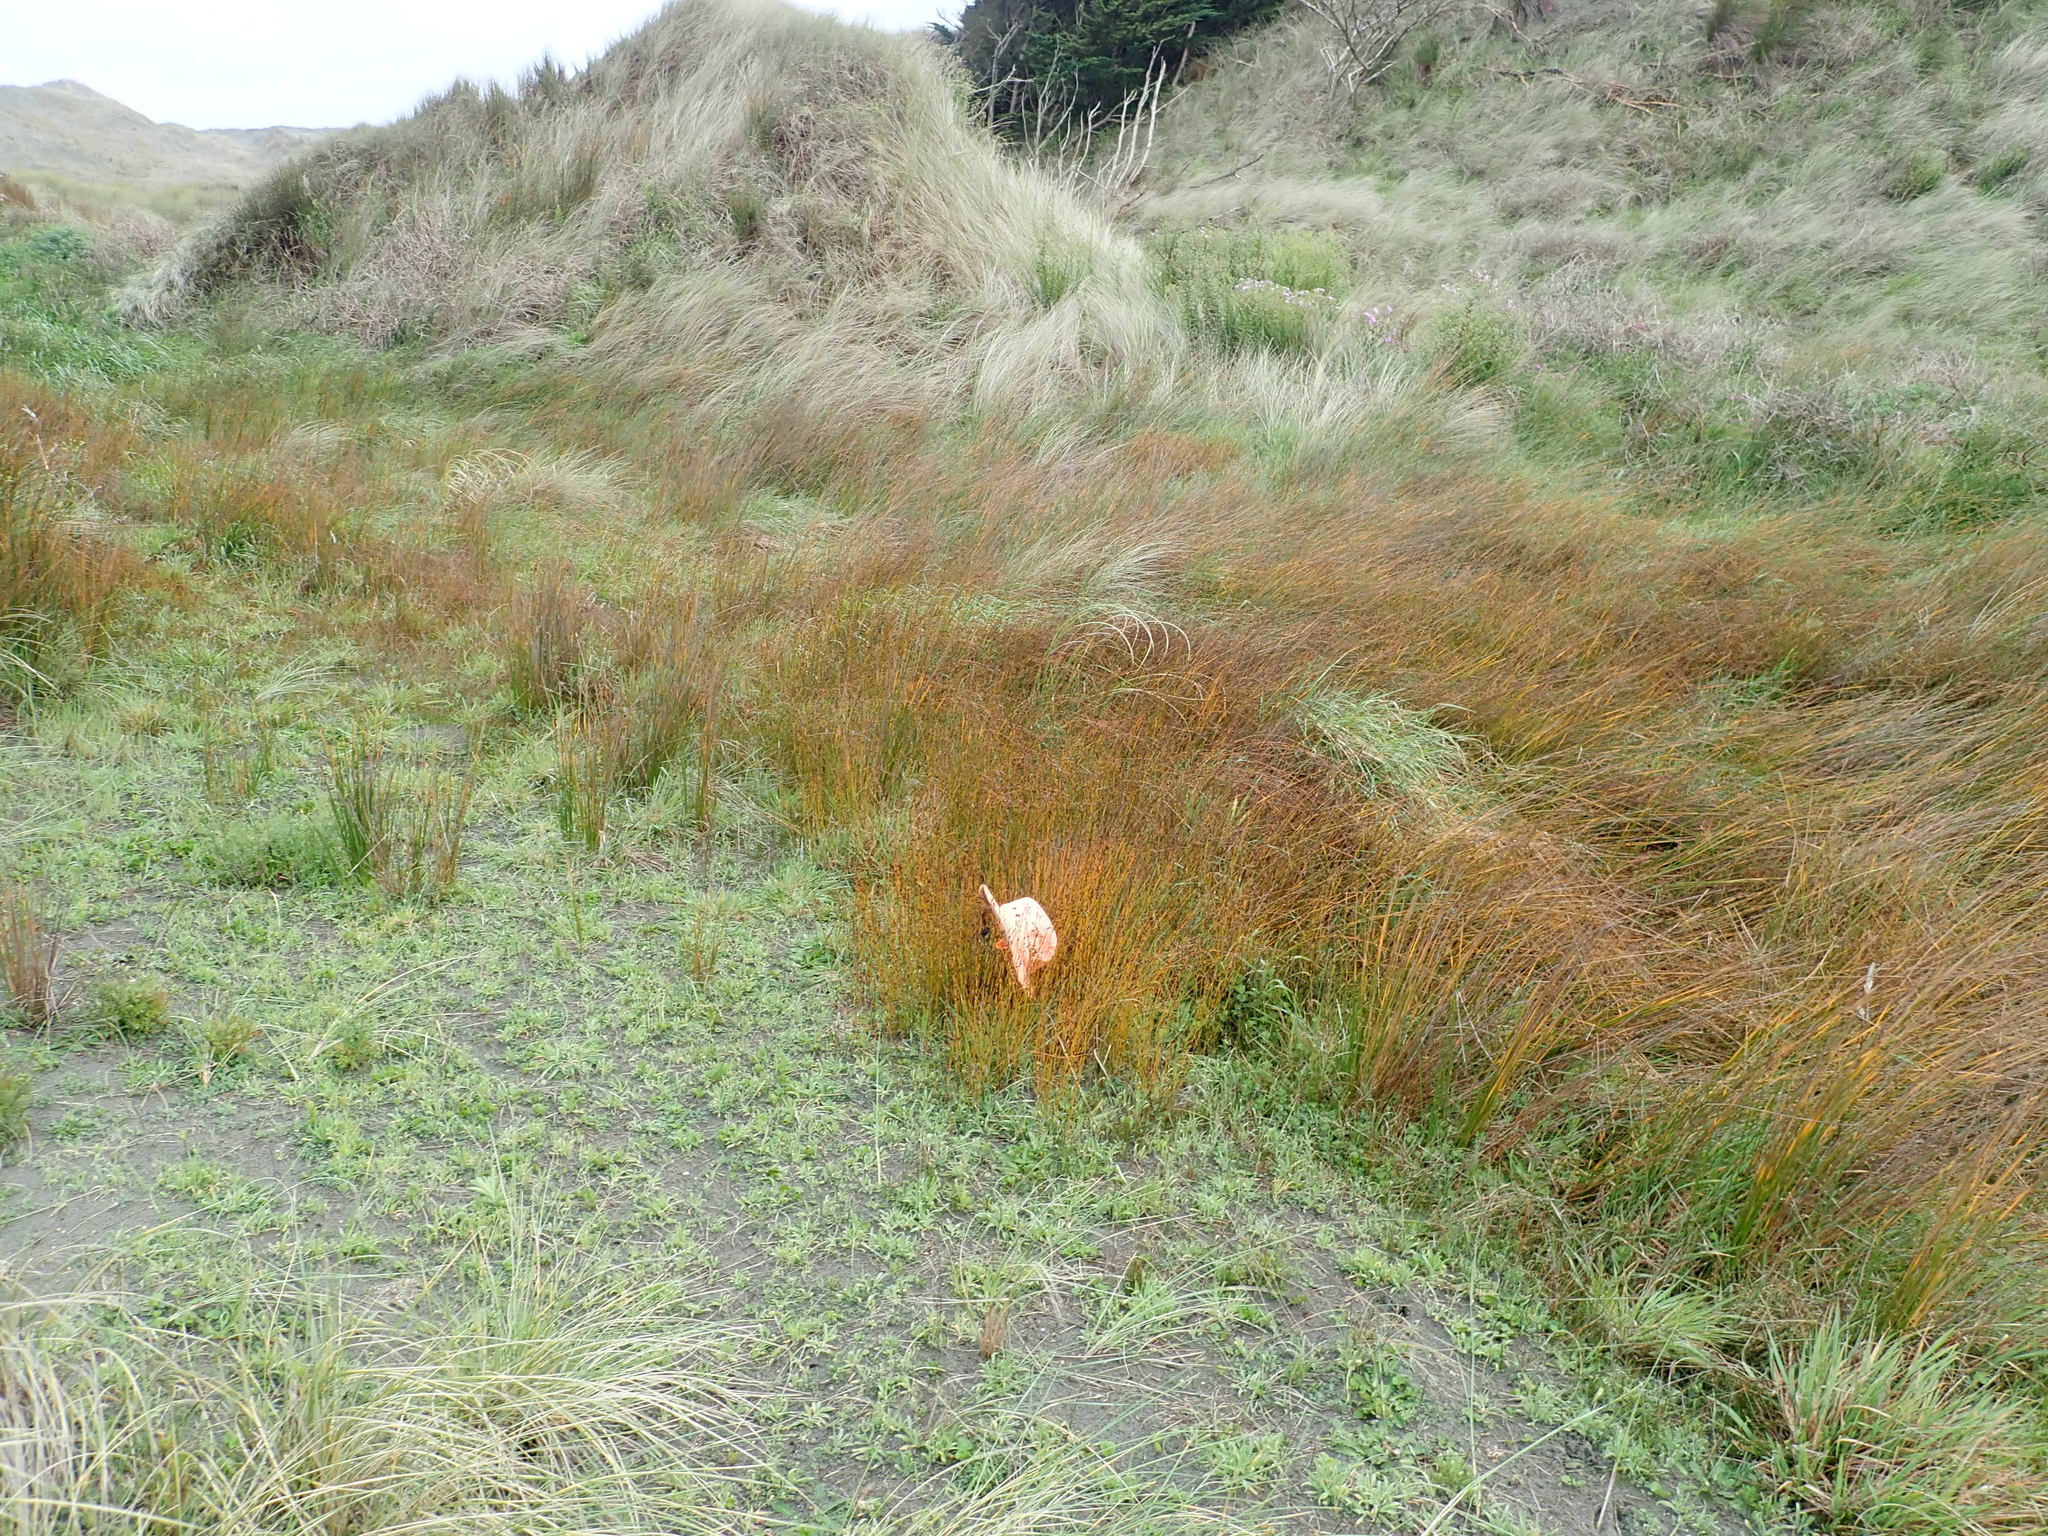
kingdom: Plantae
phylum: Tracheophyta
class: Liliopsida
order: Poales
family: Restionaceae
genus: Apodasmia
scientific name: Apodasmia similis
